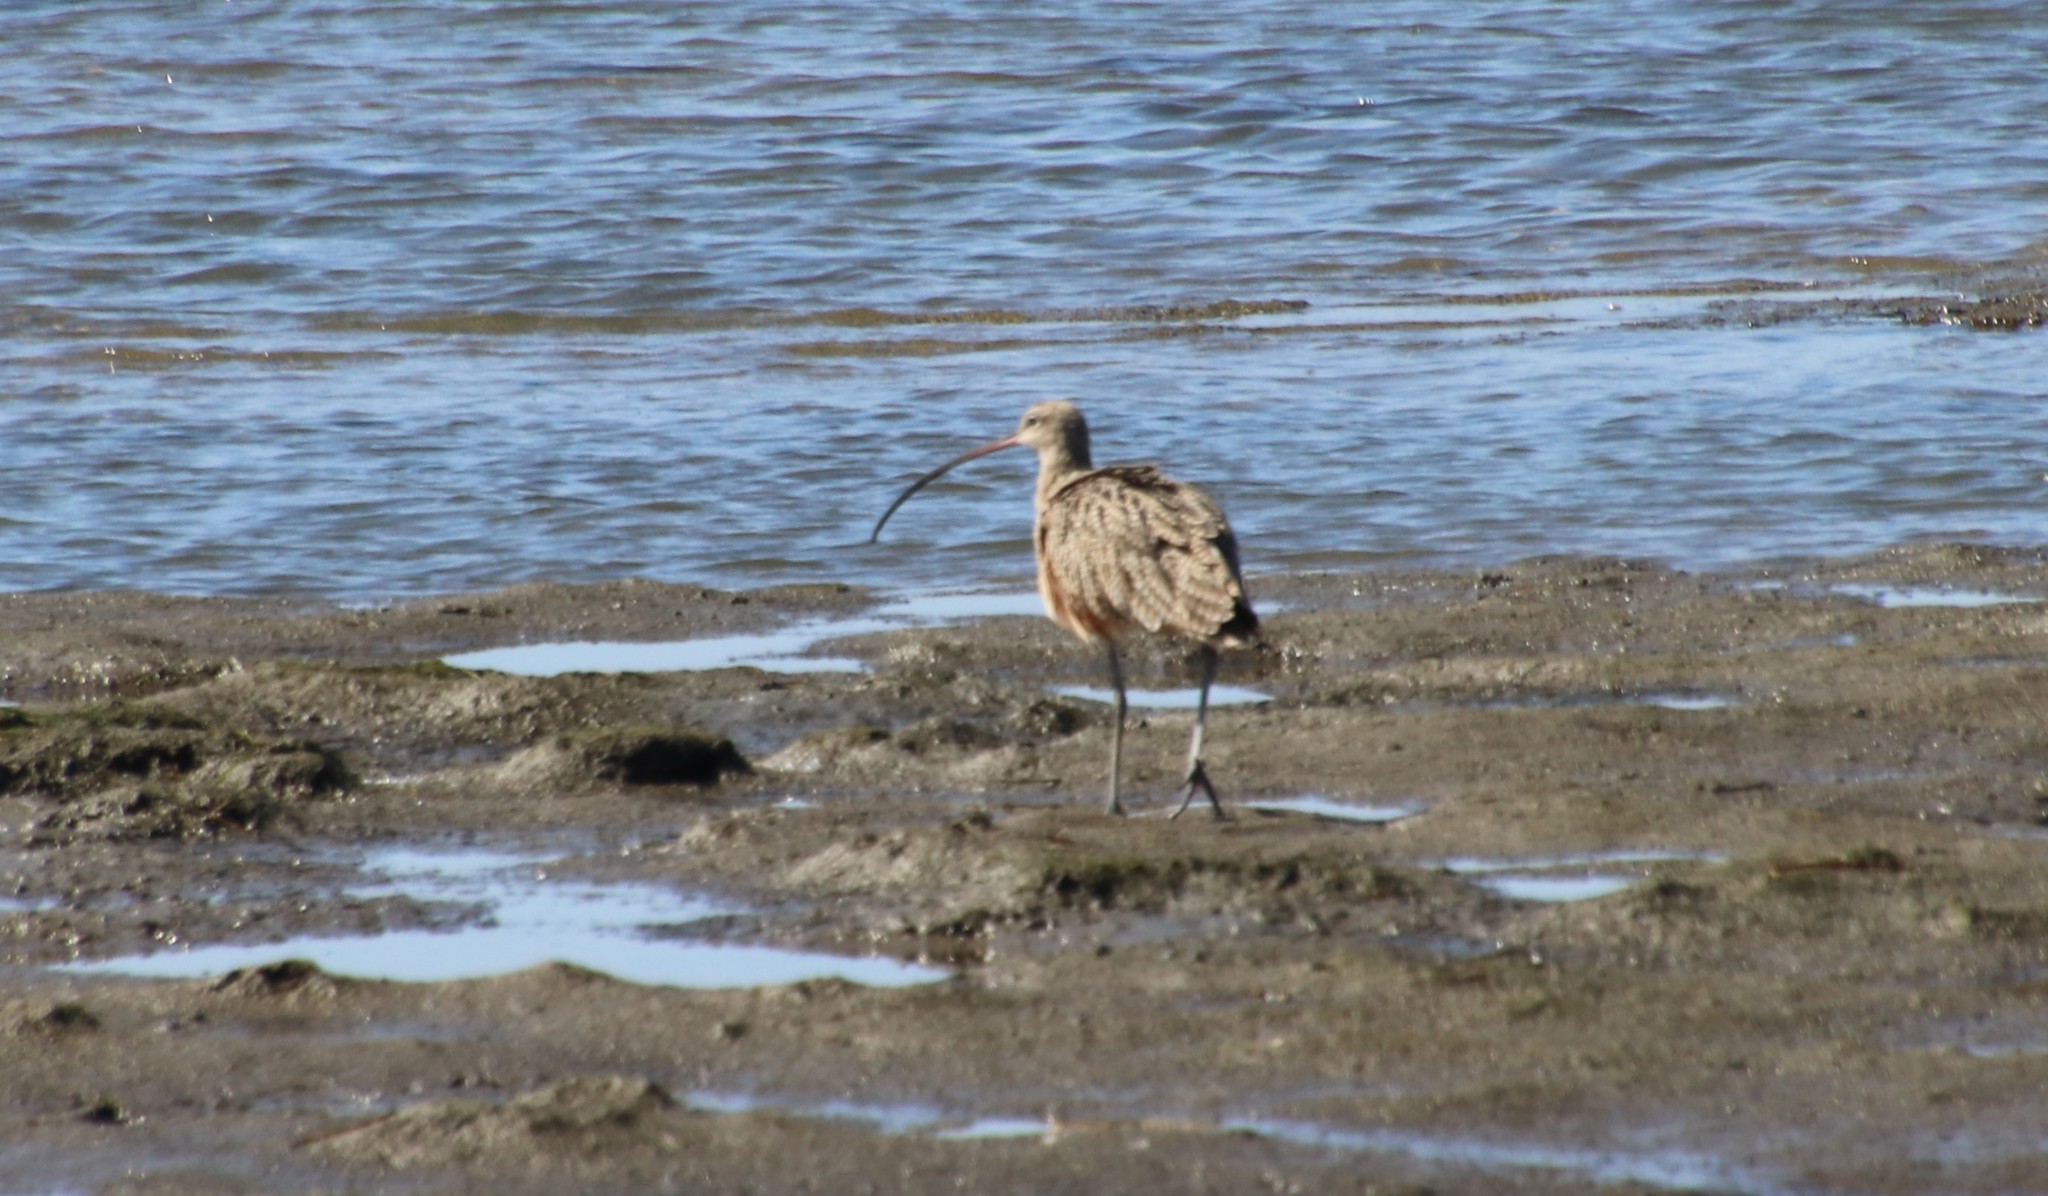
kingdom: Animalia
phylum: Chordata
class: Aves
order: Charadriiformes
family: Scolopacidae
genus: Numenius
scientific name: Numenius americanus
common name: Long-billed curlew
